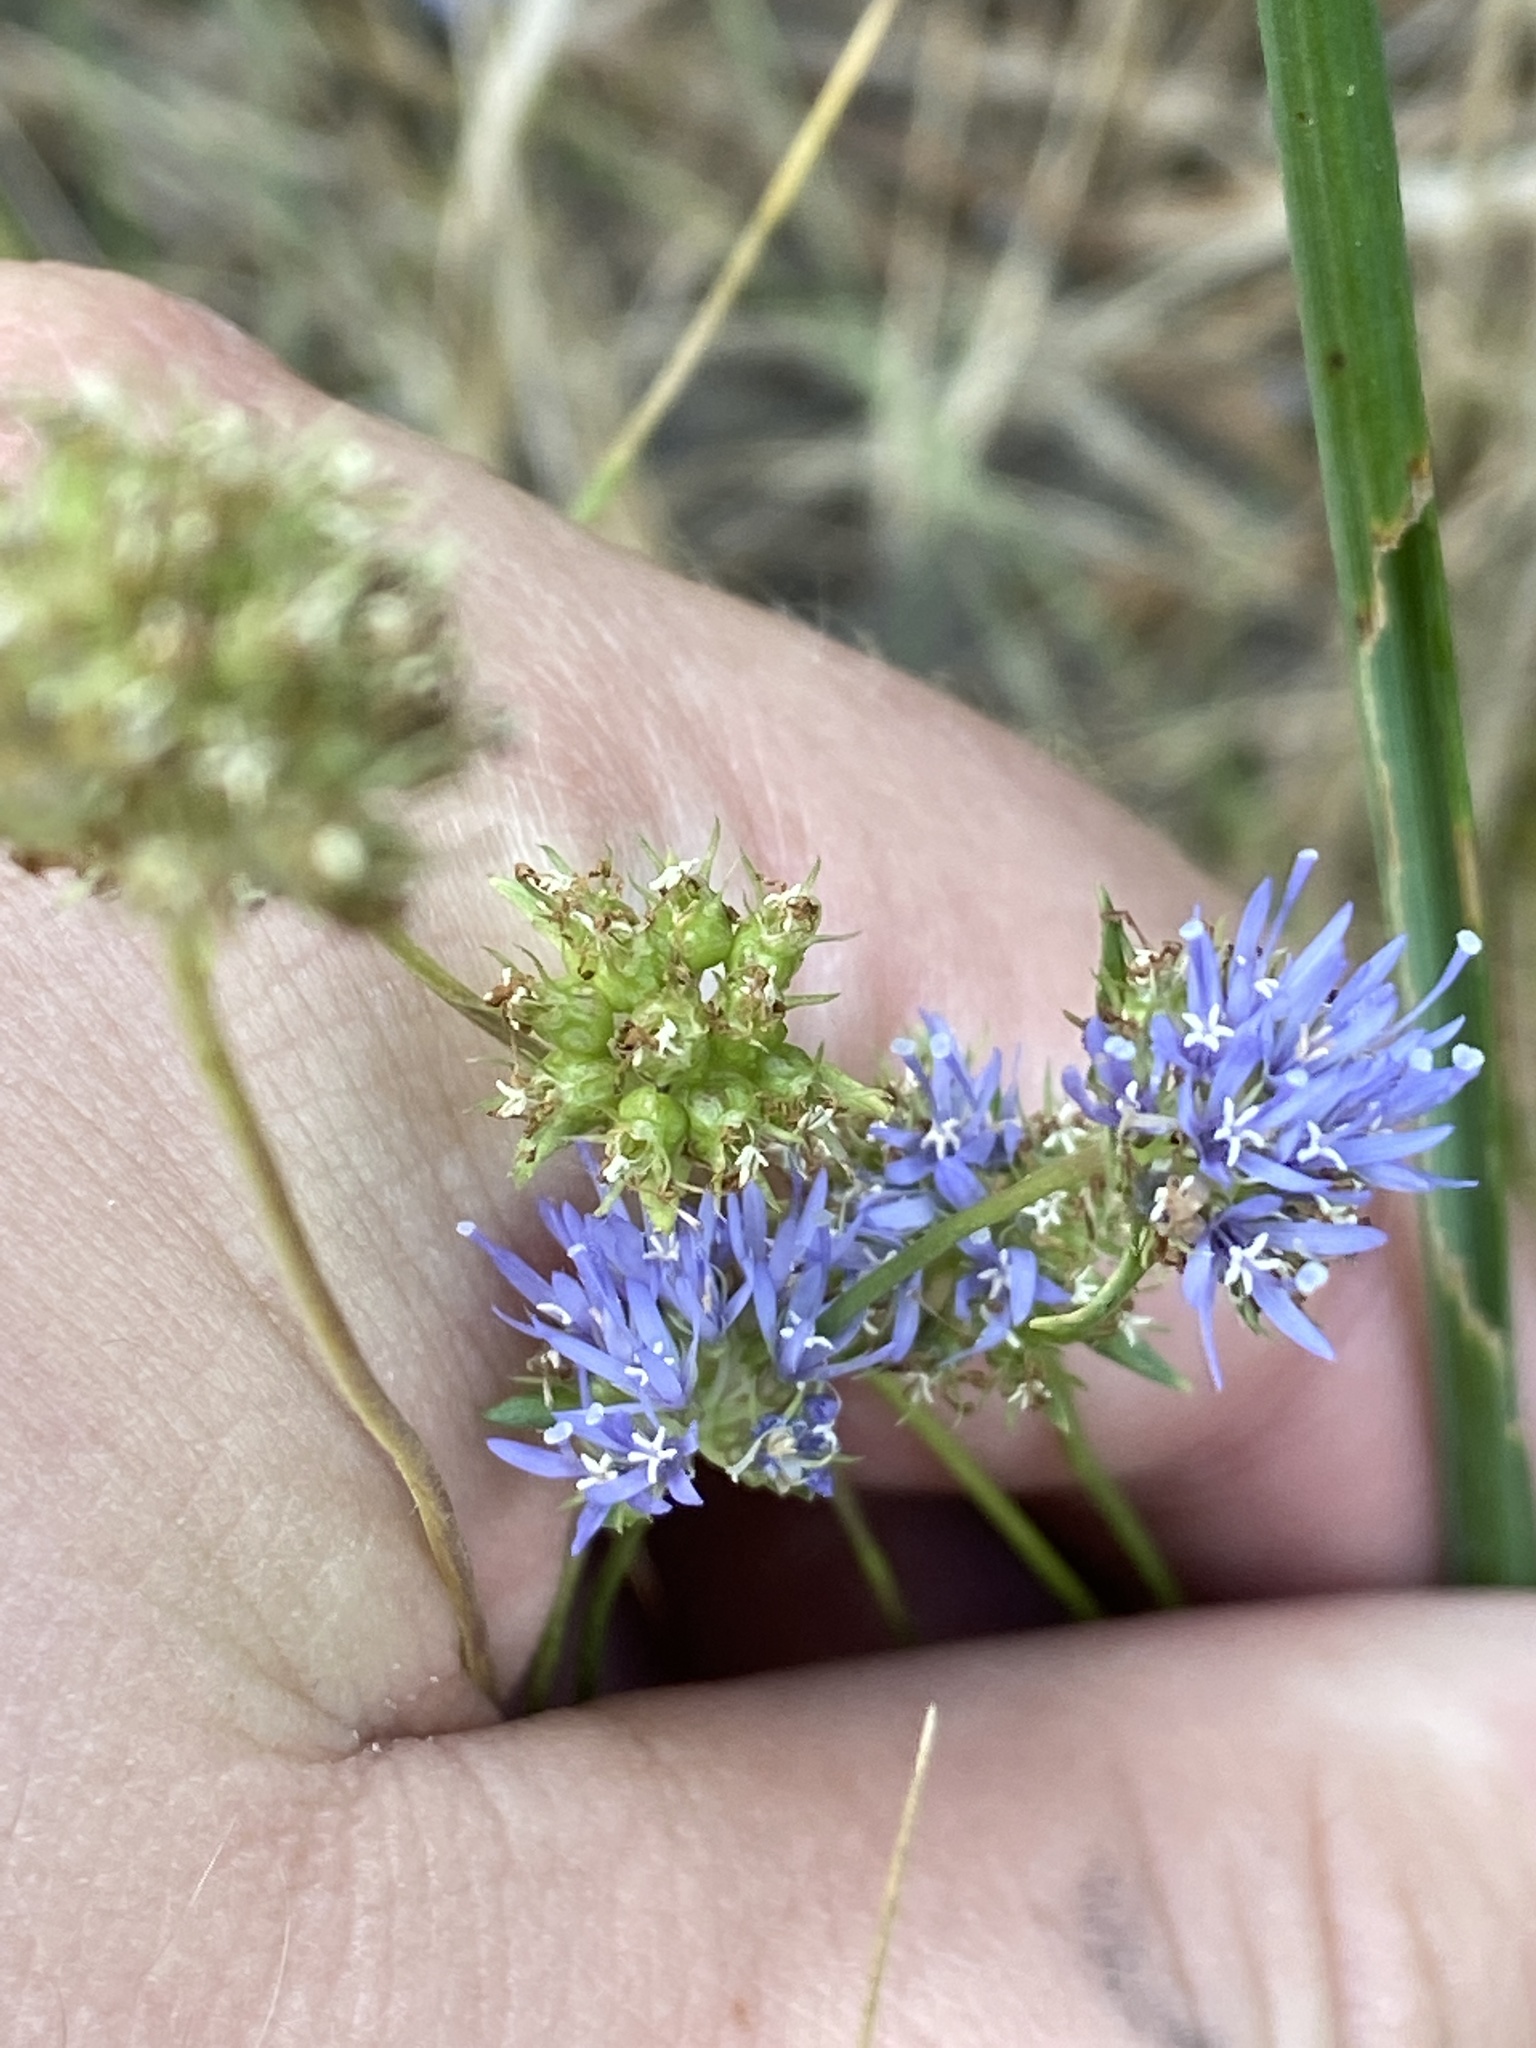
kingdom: Plantae
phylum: Tracheophyta
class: Magnoliopsida
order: Asterales
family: Campanulaceae
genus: Jasione
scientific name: Jasione montana
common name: Sheep's-bit
